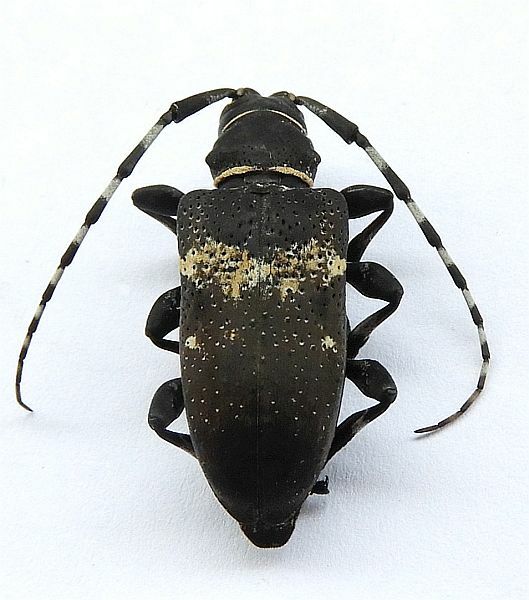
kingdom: Animalia
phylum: Arthropoda
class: Insecta
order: Coleoptera
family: Cerambycidae
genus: Coenopoeus
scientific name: Coenopoeus palmeri
